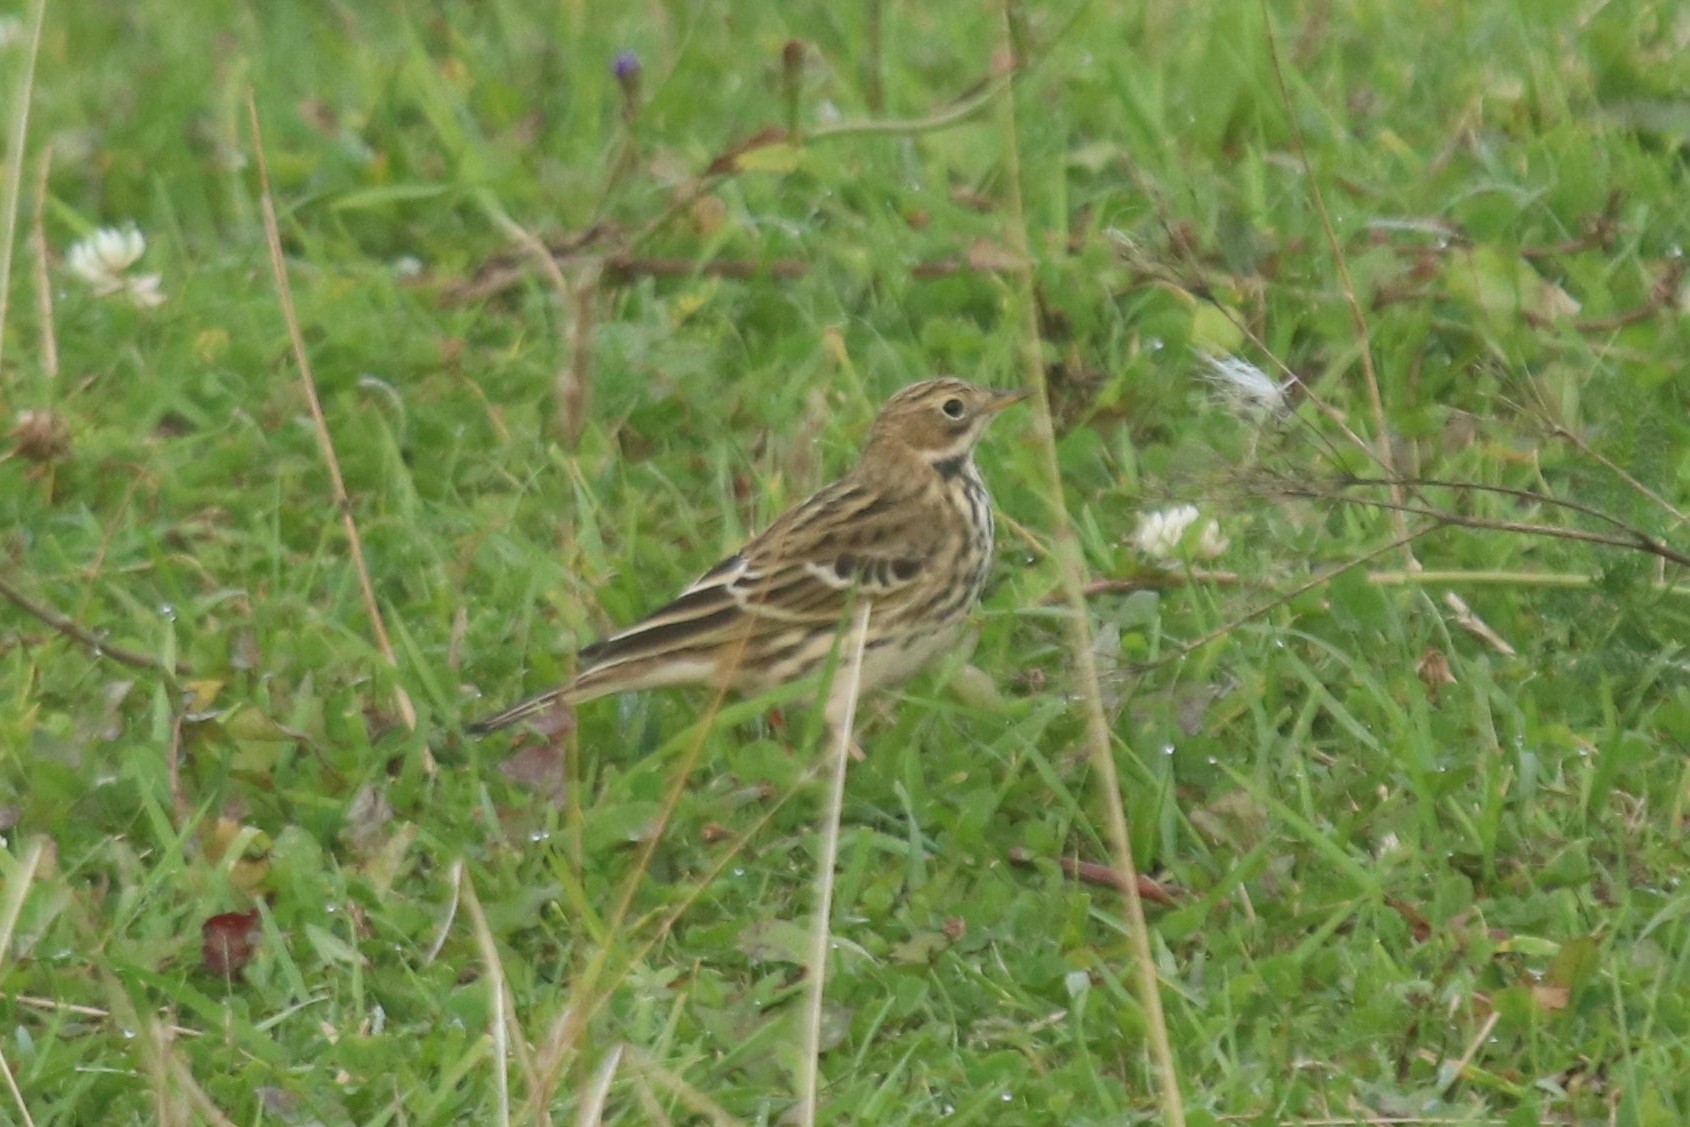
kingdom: Animalia
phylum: Chordata
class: Aves
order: Passeriformes
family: Motacillidae
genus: Anthus
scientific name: Anthus pratensis
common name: Meadow pipit
